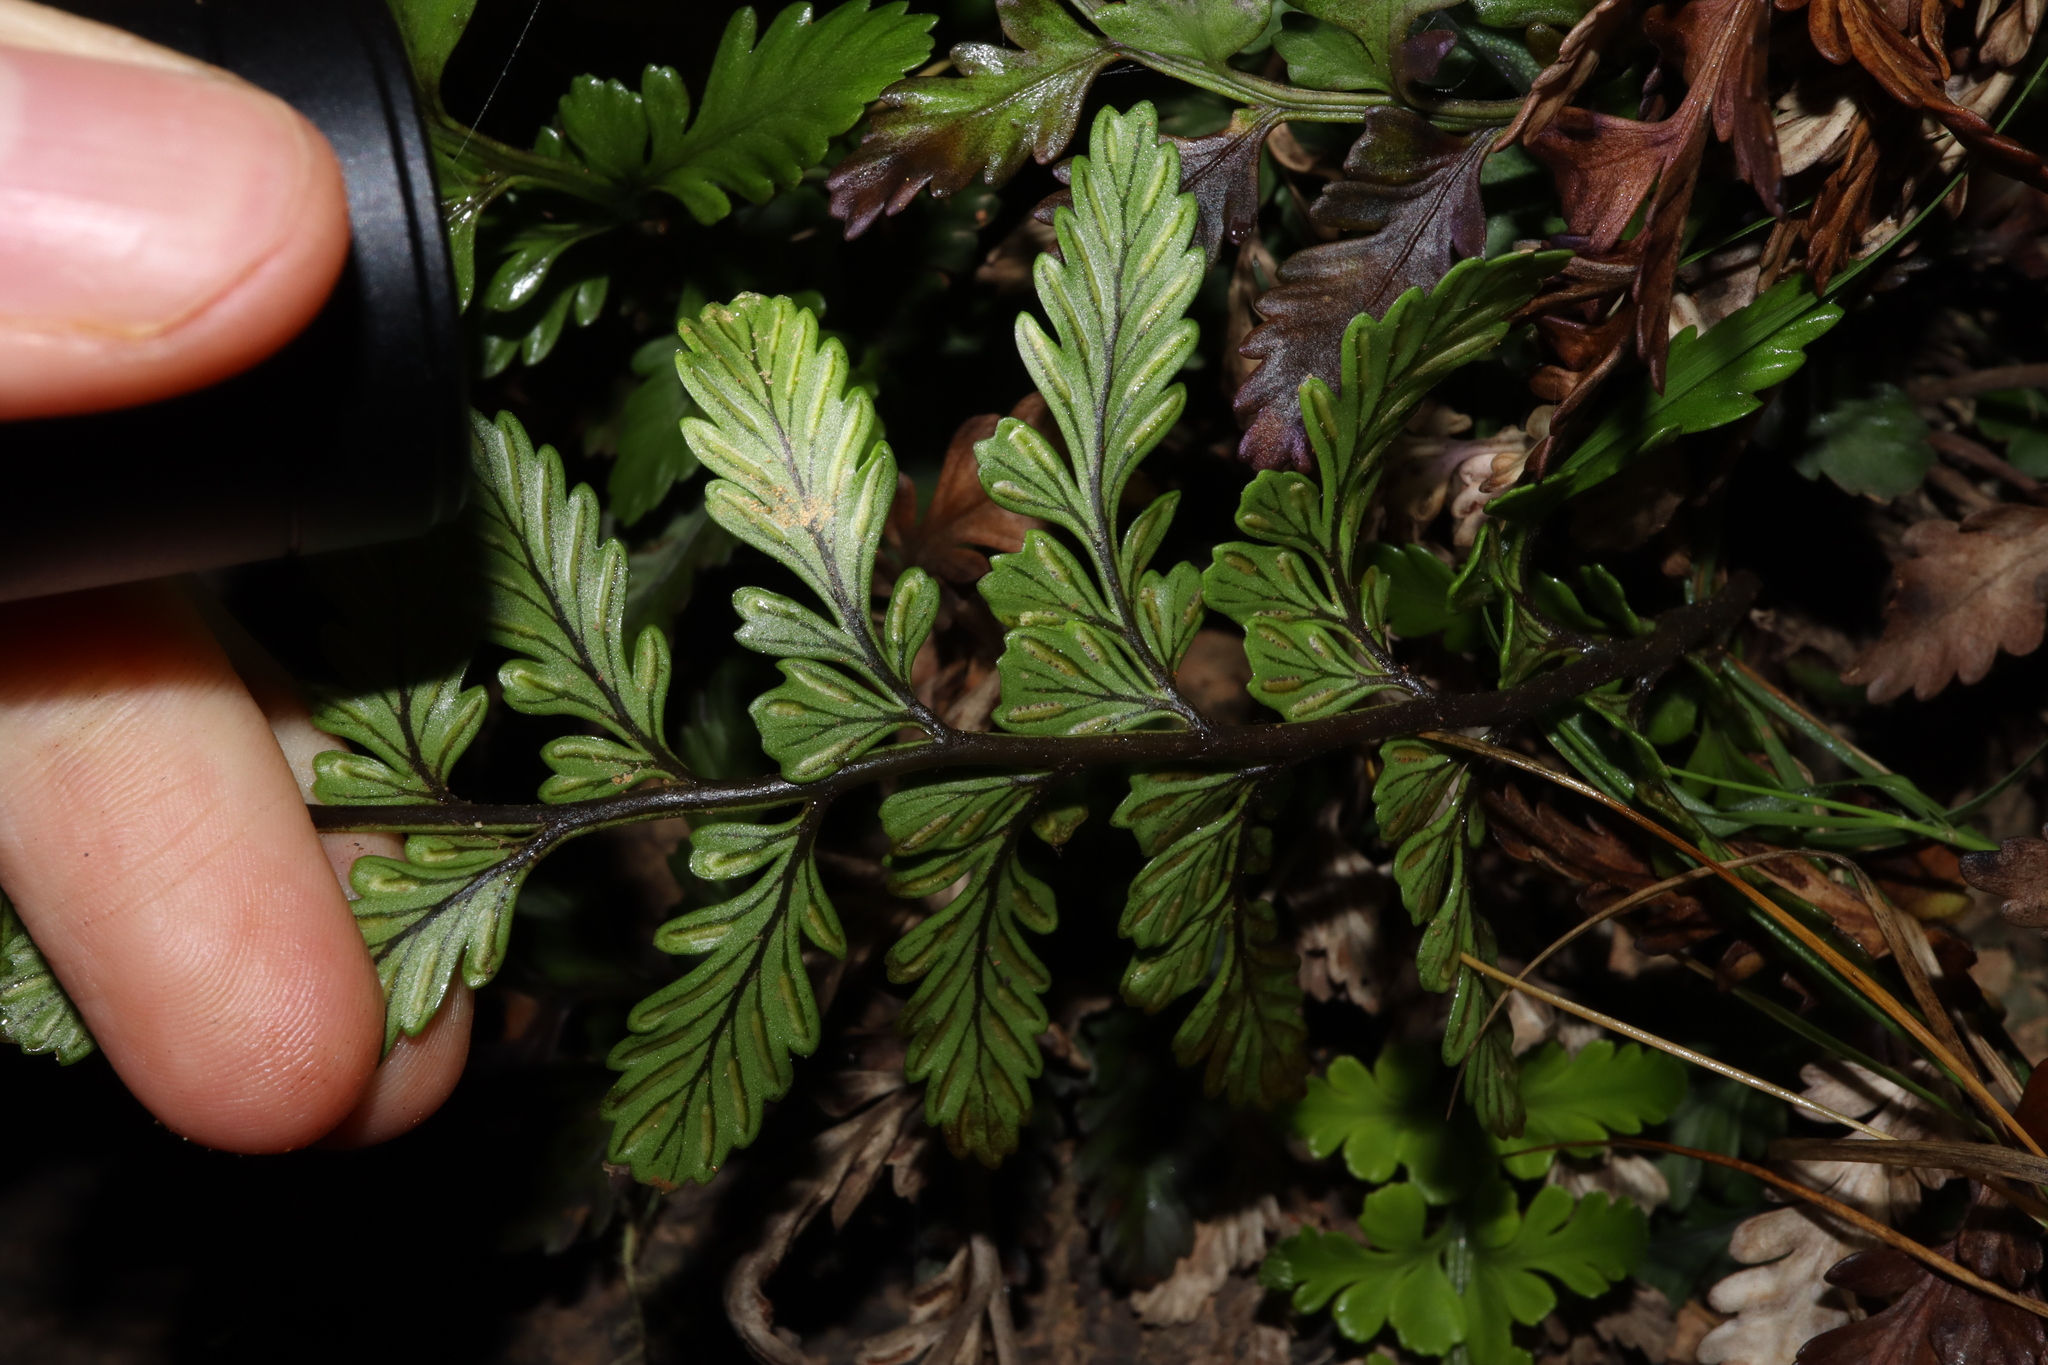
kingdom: Plantae
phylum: Tracheophyta
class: Polypodiopsida
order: Polypodiales
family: Aspleniaceae
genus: Asplenium
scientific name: Asplenium difforme
